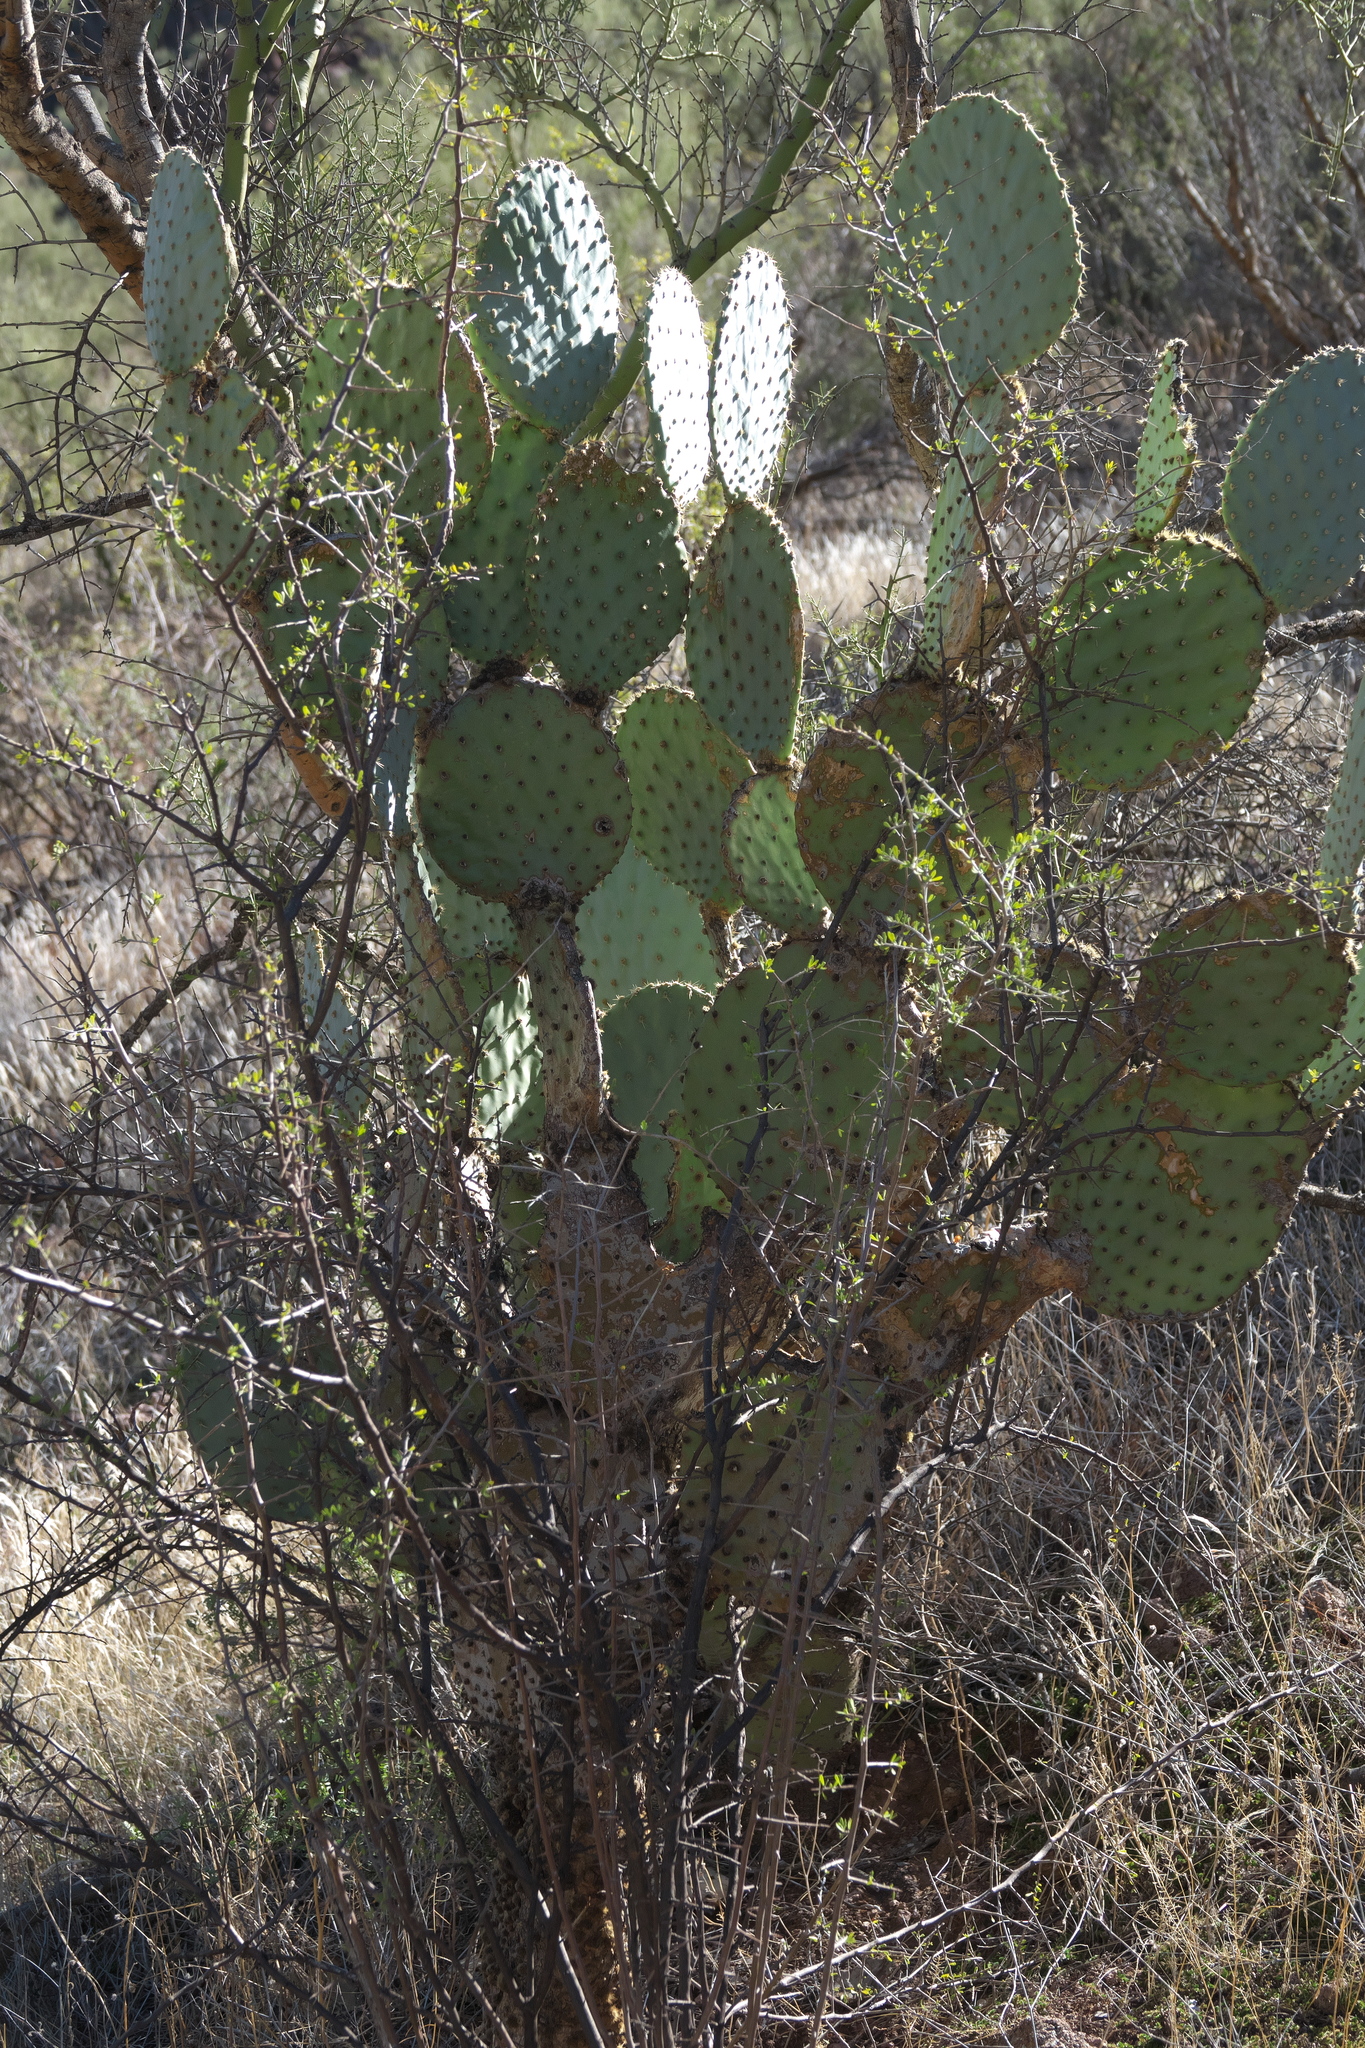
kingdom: Plantae
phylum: Tracheophyta
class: Magnoliopsida
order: Caryophyllales
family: Cactaceae
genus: Opuntia
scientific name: Opuntia chlorotica
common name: Dollar-joint prickly-pear
